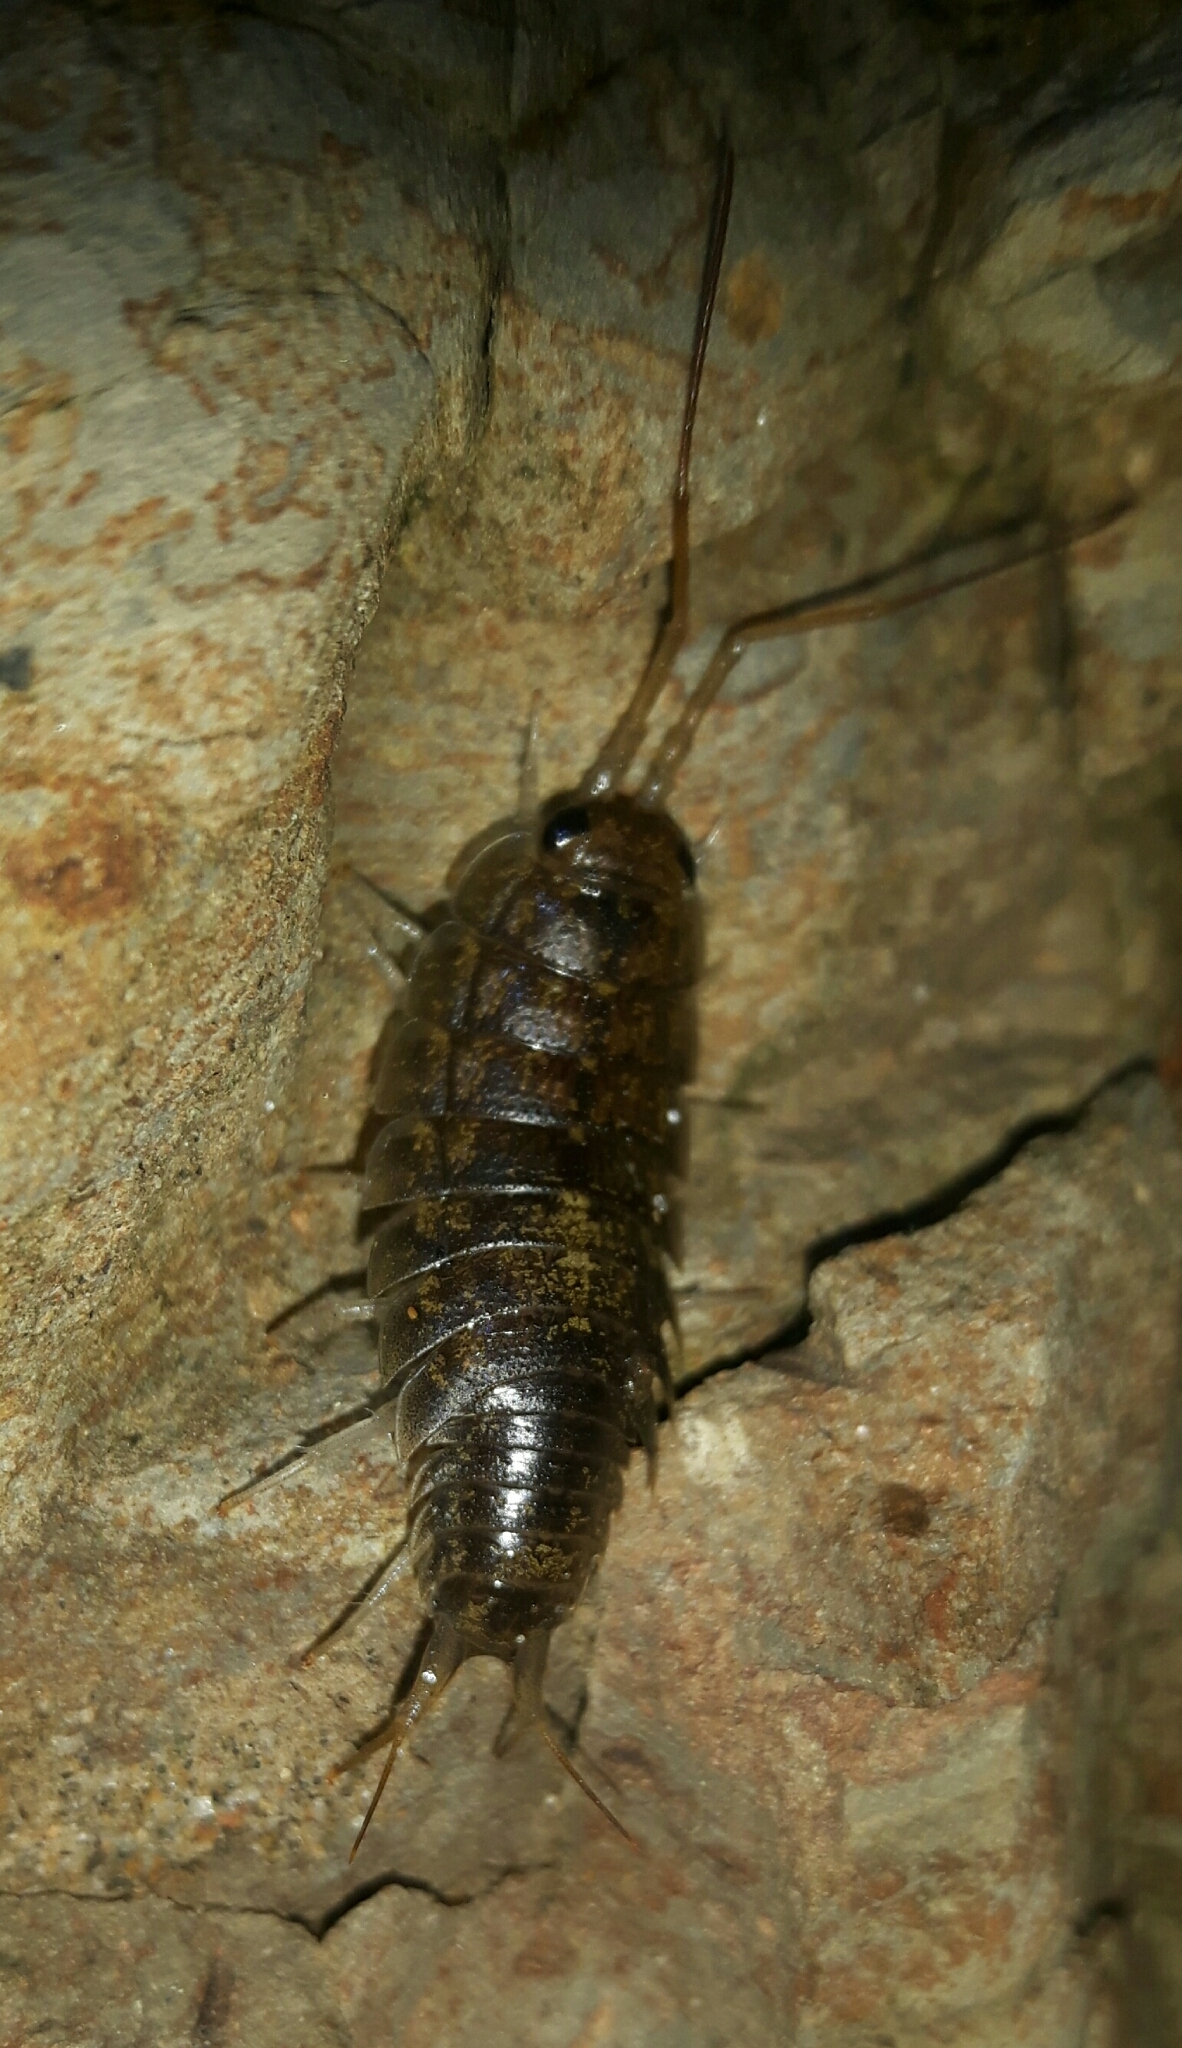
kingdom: Animalia
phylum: Arthropoda
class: Malacostraca
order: Isopoda
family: Ligiidae
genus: Ligia
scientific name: Ligia novizealandiae
